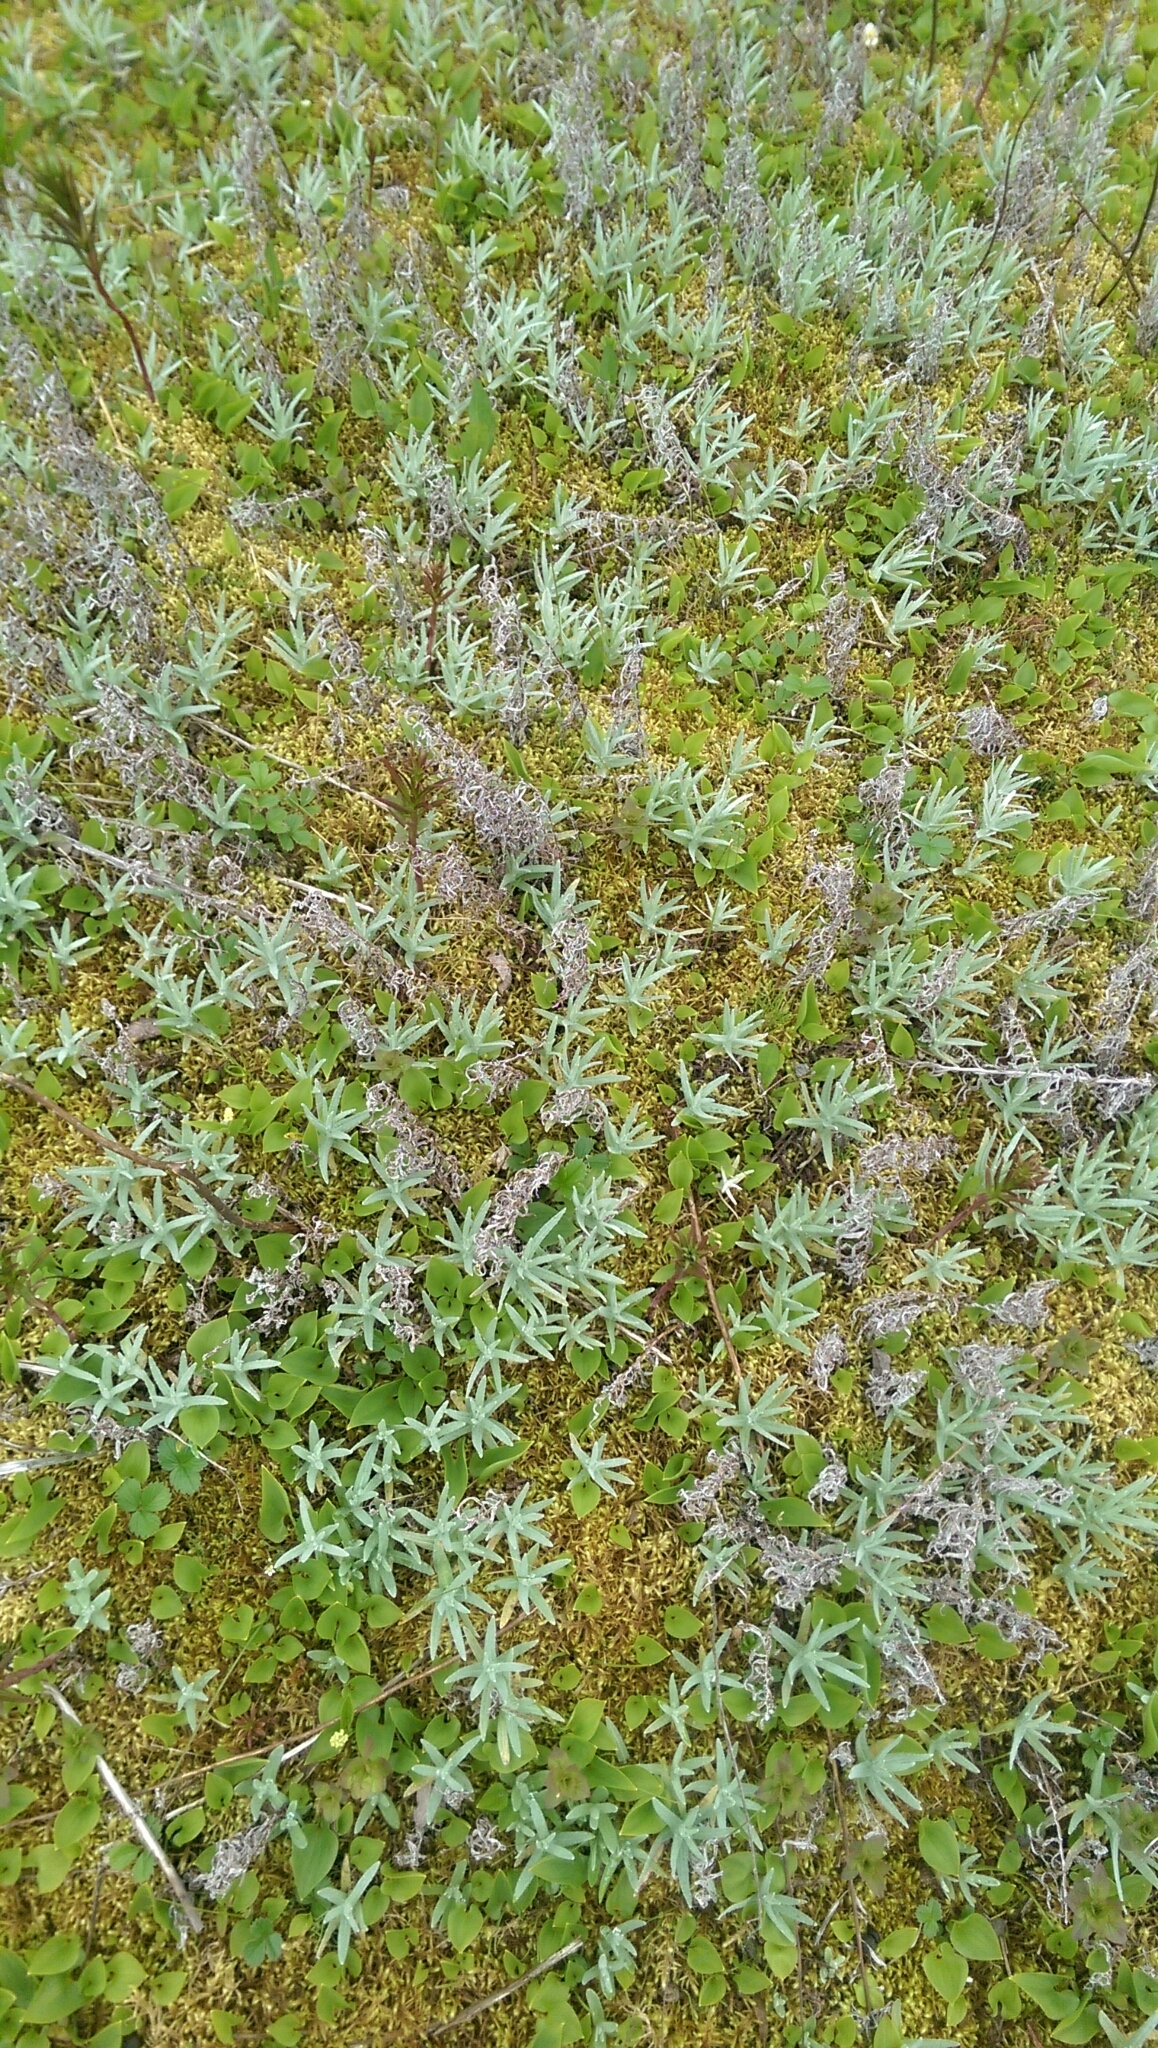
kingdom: Plantae
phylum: Tracheophyta
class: Liliopsida
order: Asparagales
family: Asparagaceae
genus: Maianthemum
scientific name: Maianthemum dilatatum
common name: False lily-of-the-valley
